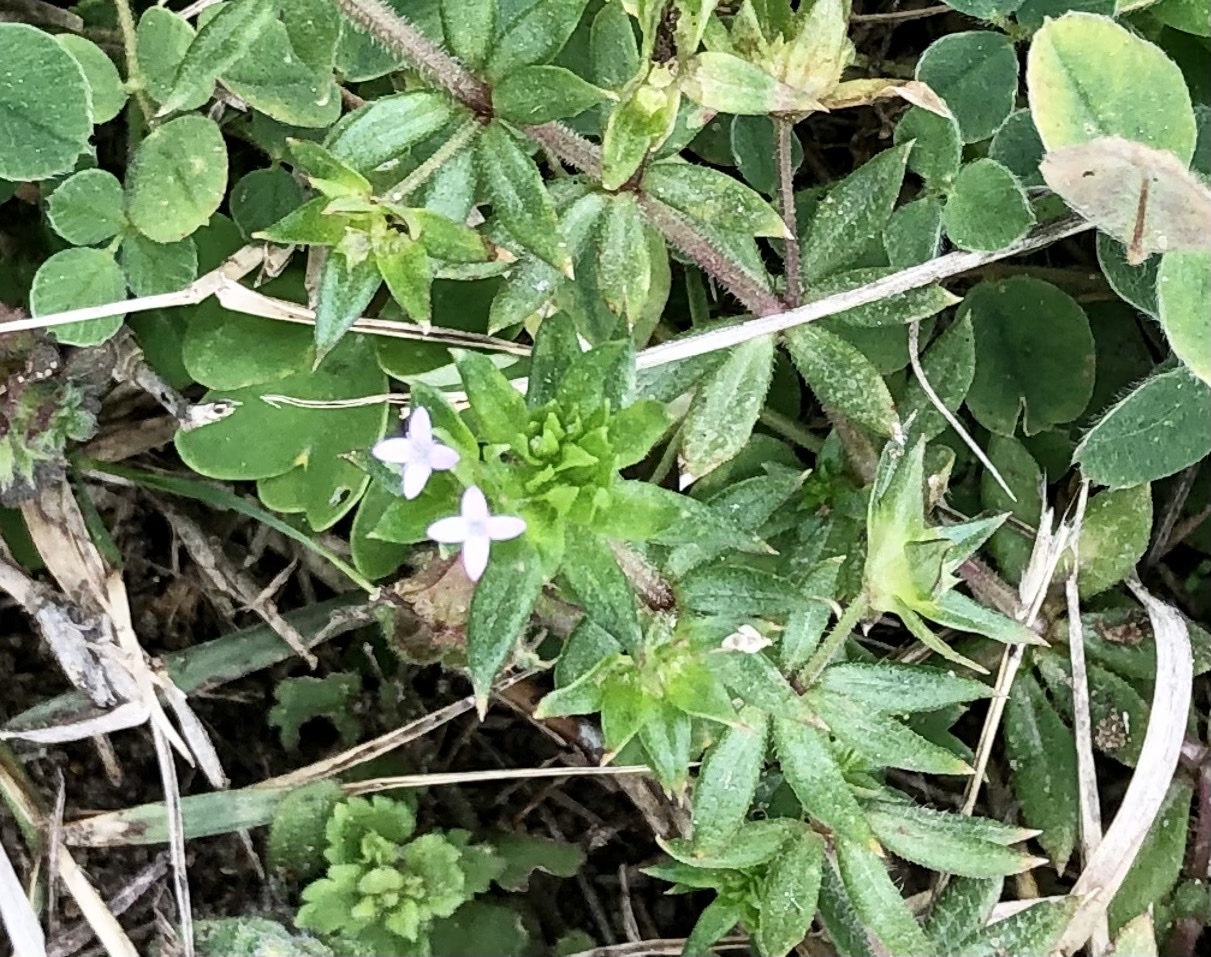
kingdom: Plantae
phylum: Tracheophyta
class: Magnoliopsida
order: Gentianales
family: Rubiaceae
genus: Sherardia
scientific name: Sherardia arvensis
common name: Field madder
